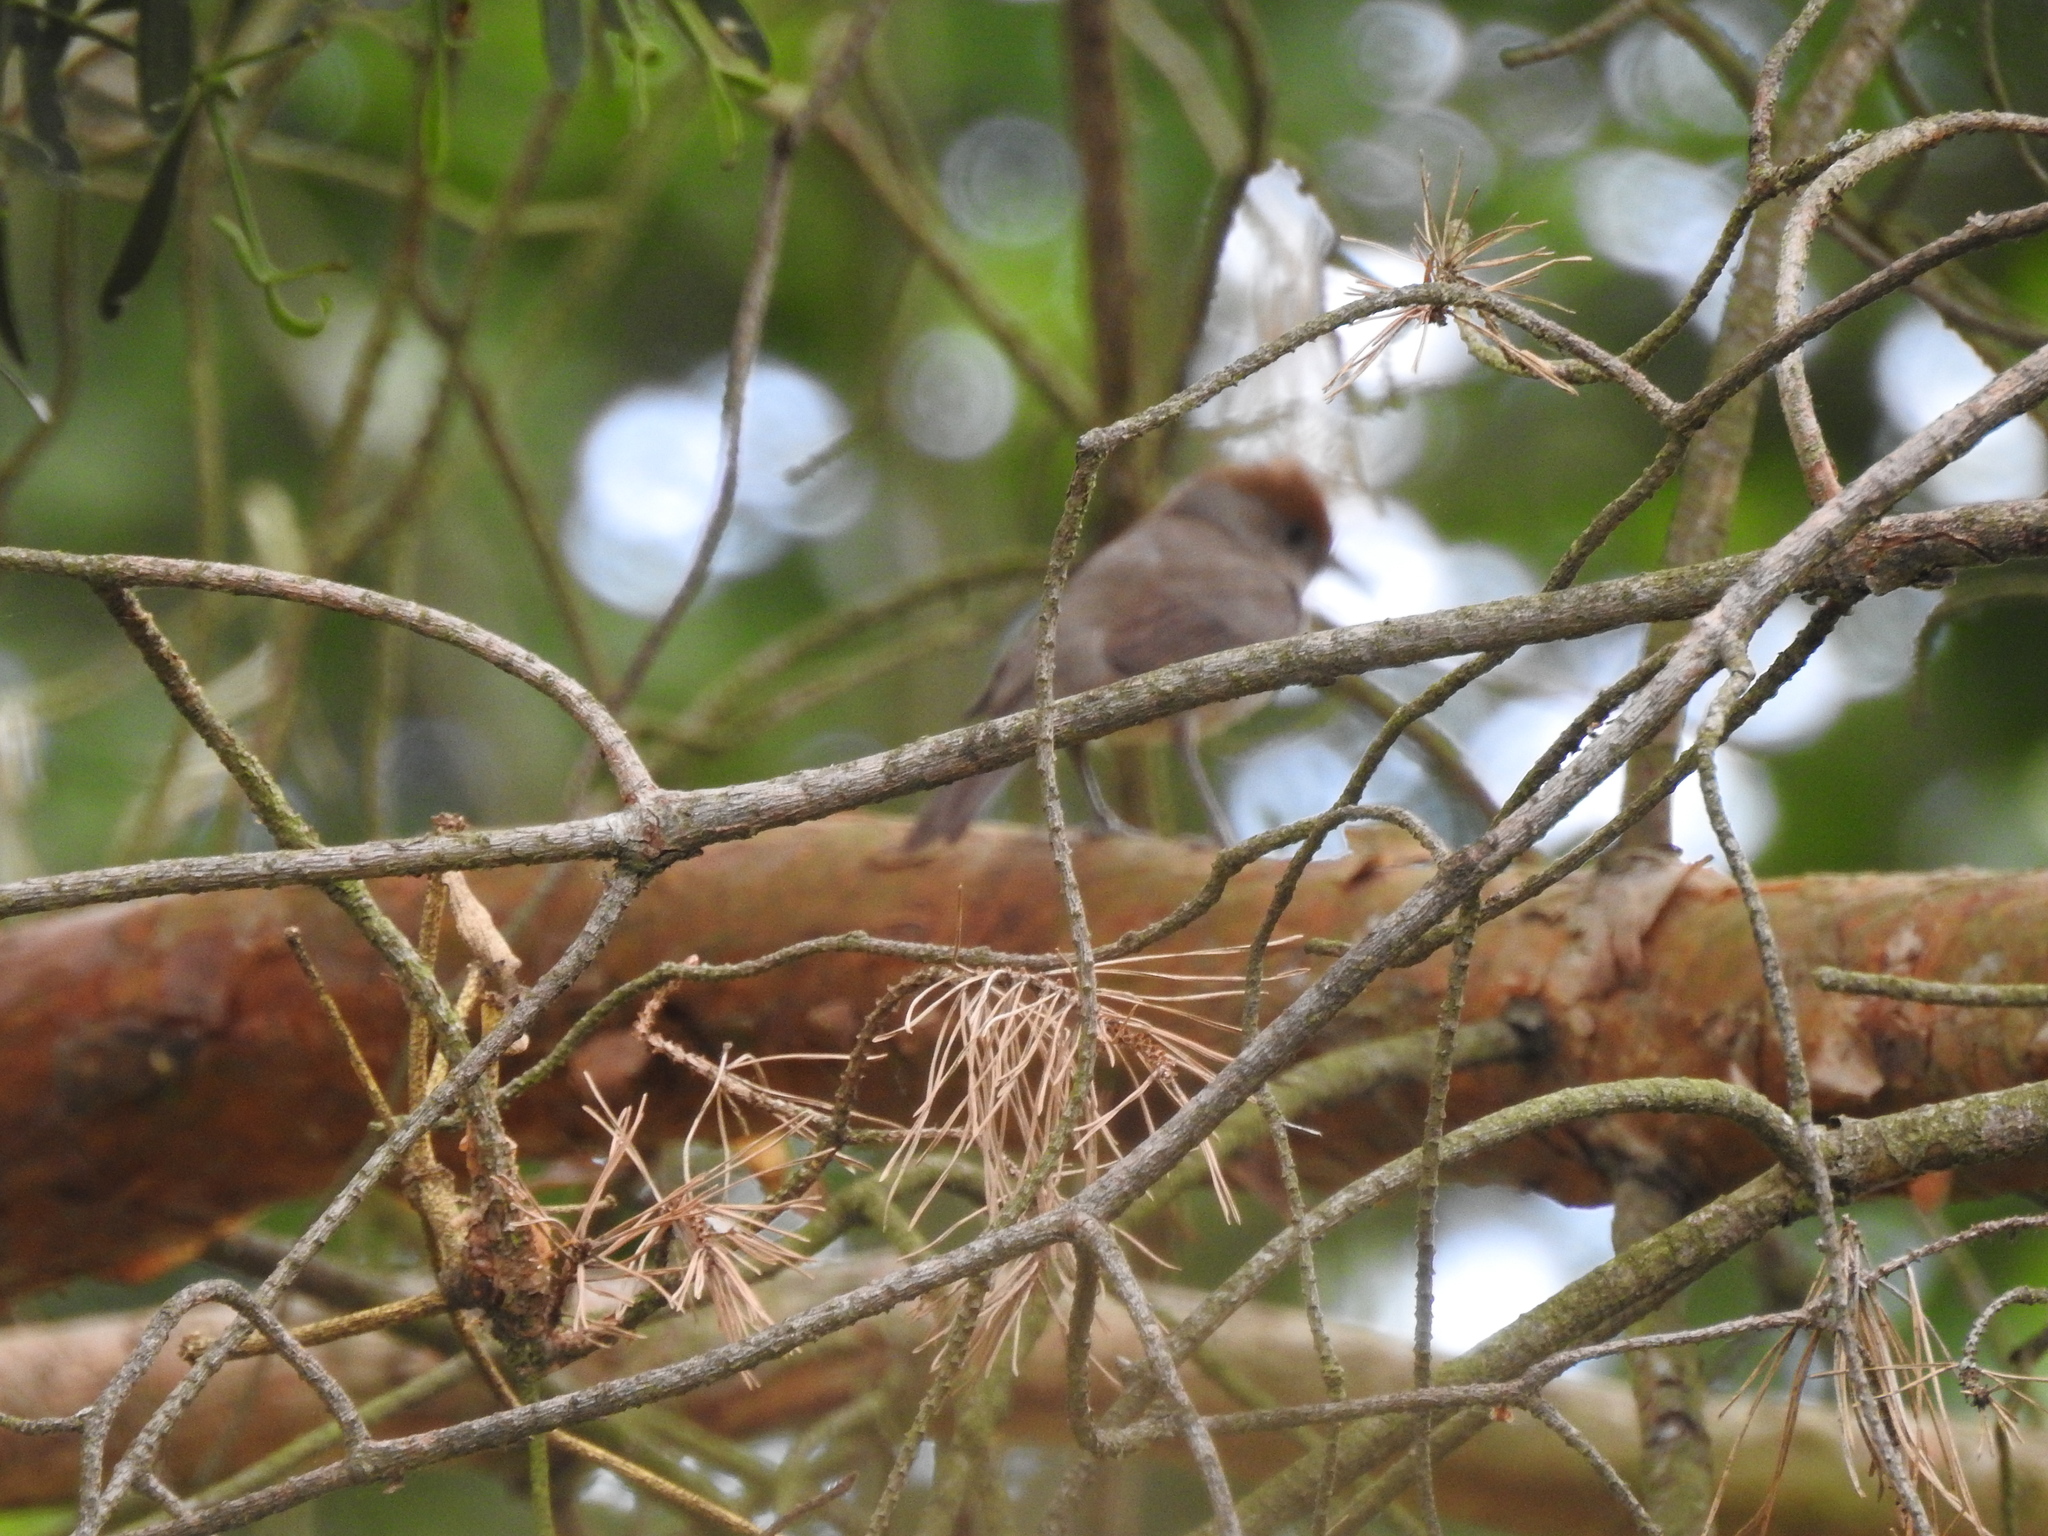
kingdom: Animalia
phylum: Chordata
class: Aves
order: Passeriformes
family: Sylviidae
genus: Sylvia
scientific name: Sylvia atricapilla
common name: Eurasian blackcap
